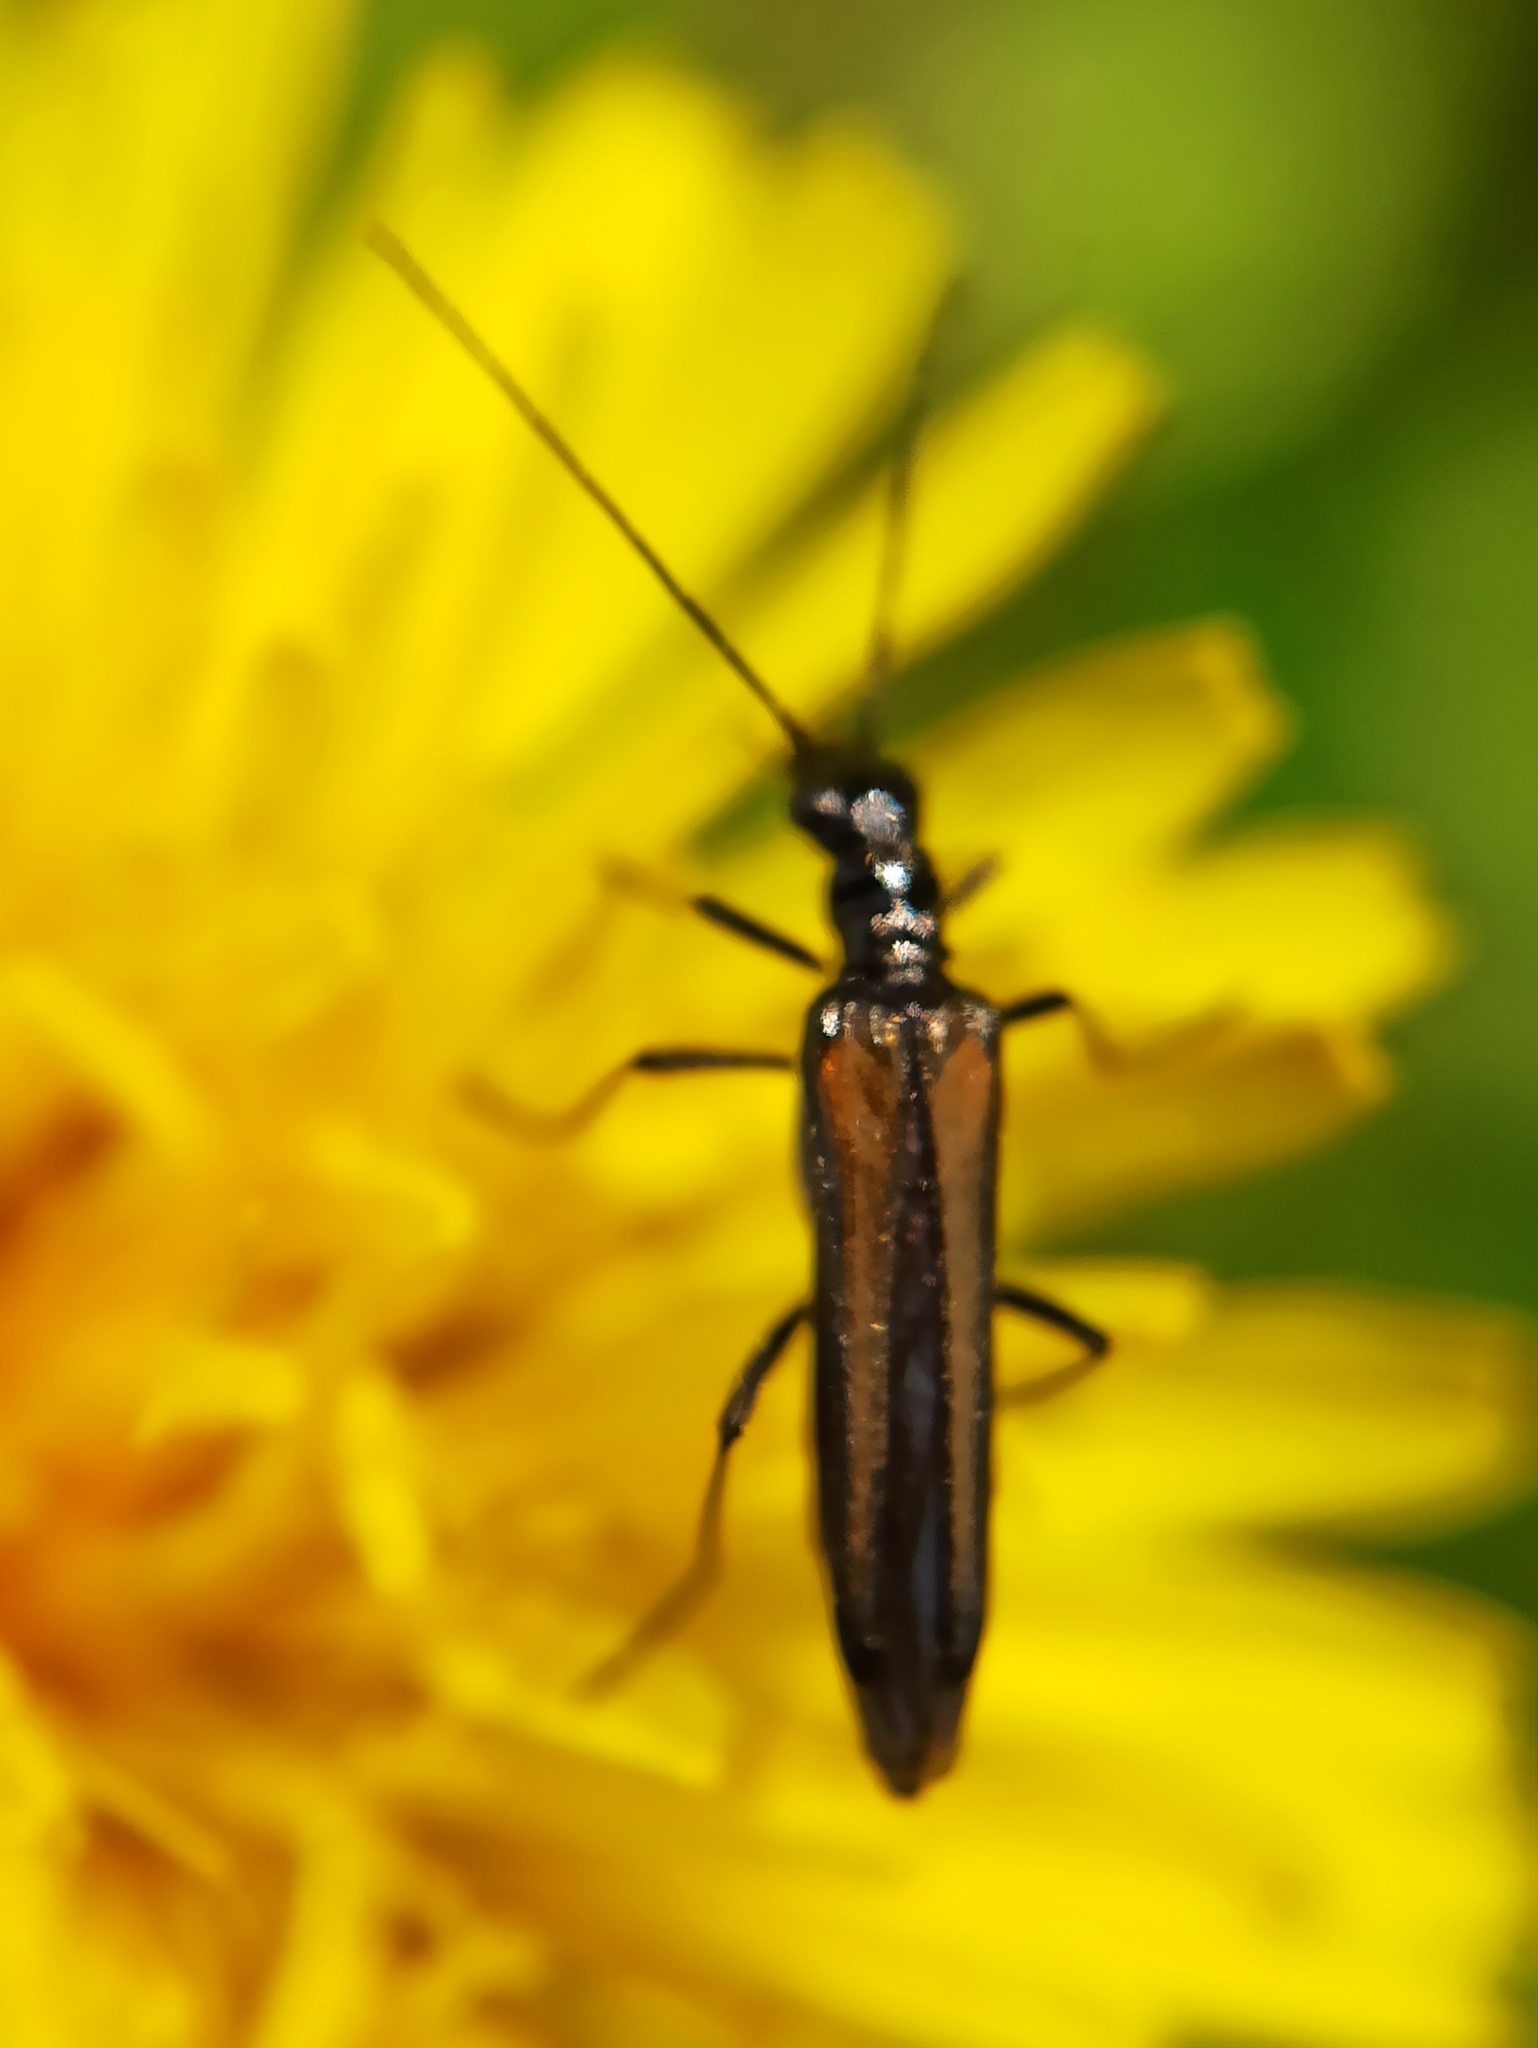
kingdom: Animalia
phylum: Arthropoda
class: Insecta
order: Coleoptera
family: Oedemeridae
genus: Oedemera
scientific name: Oedemera pthysica
